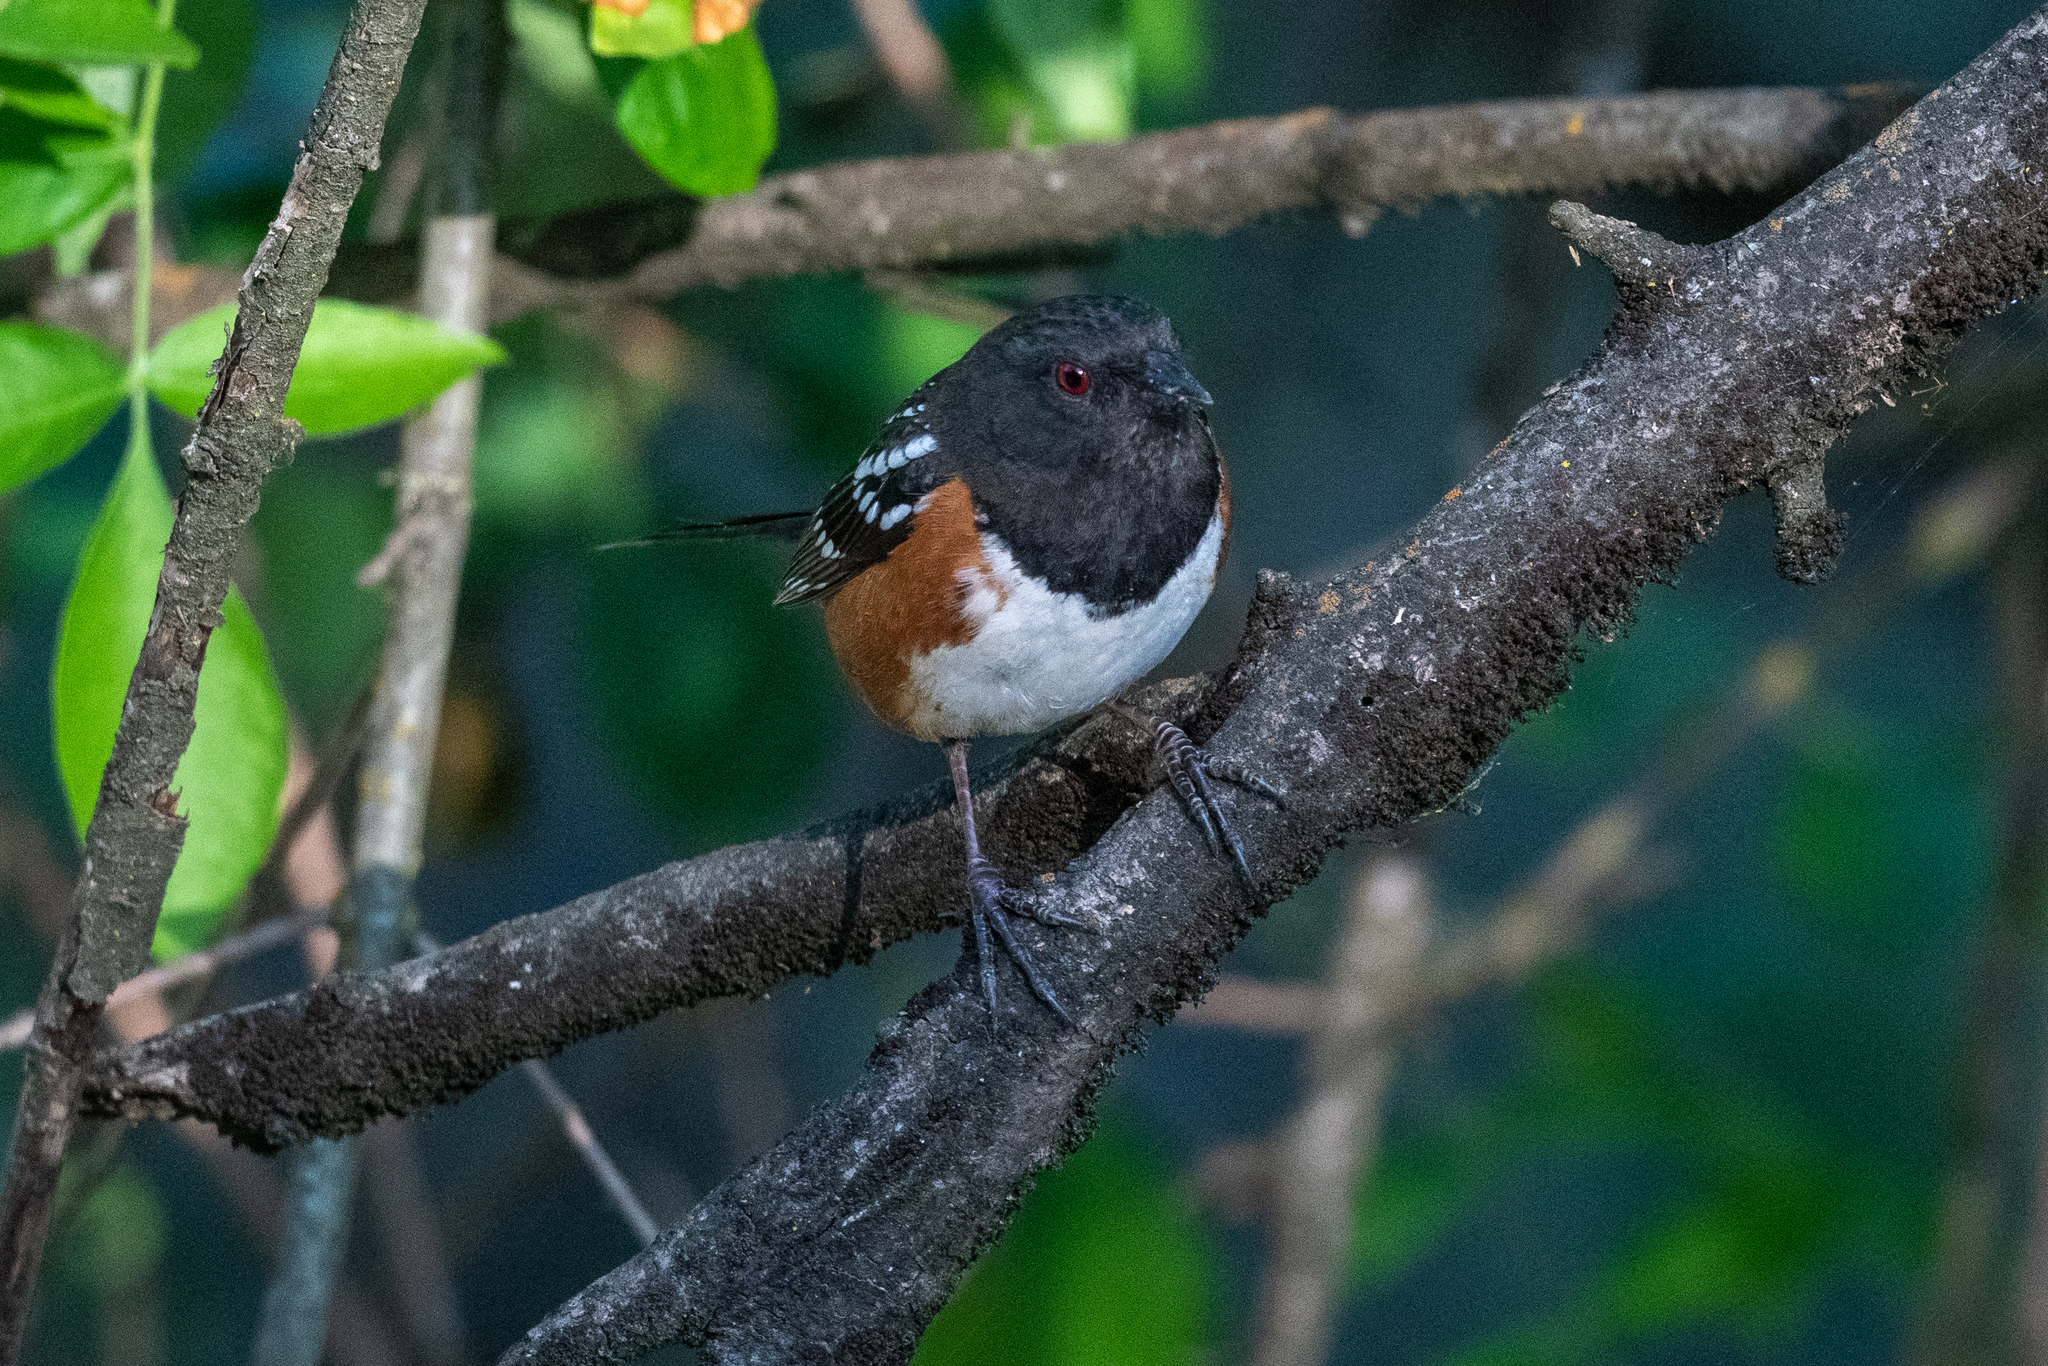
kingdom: Animalia
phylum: Chordata
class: Aves
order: Passeriformes
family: Passerellidae
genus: Pipilo
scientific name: Pipilo maculatus
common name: Spotted towhee
